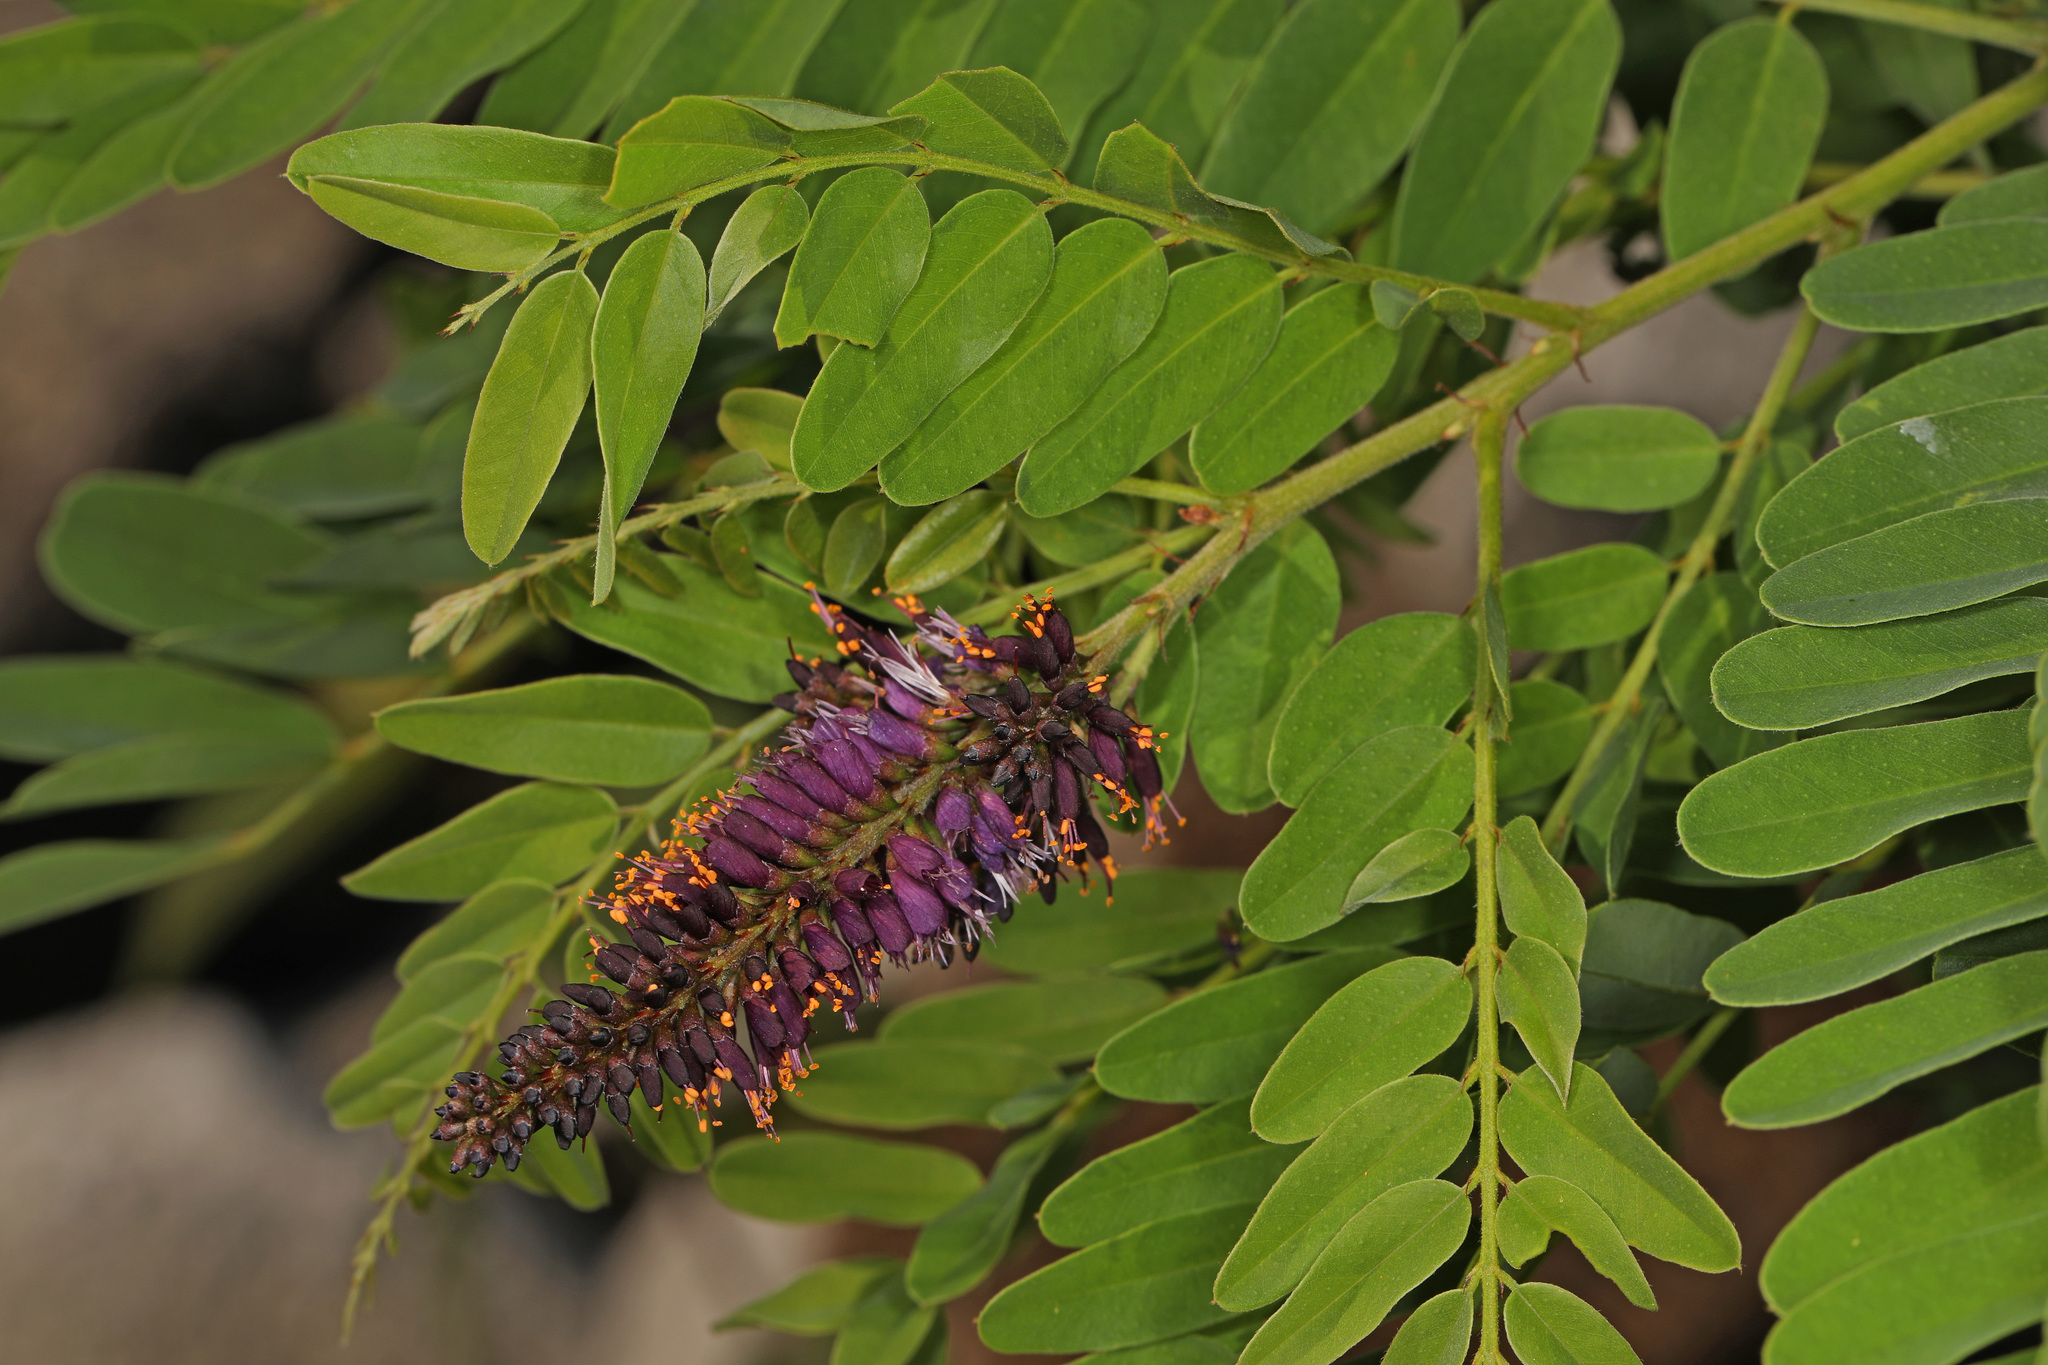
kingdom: Plantae
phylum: Tracheophyta
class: Magnoliopsida
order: Fabales
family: Fabaceae
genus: Amorpha
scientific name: Amorpha fruticosa
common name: False indigo
